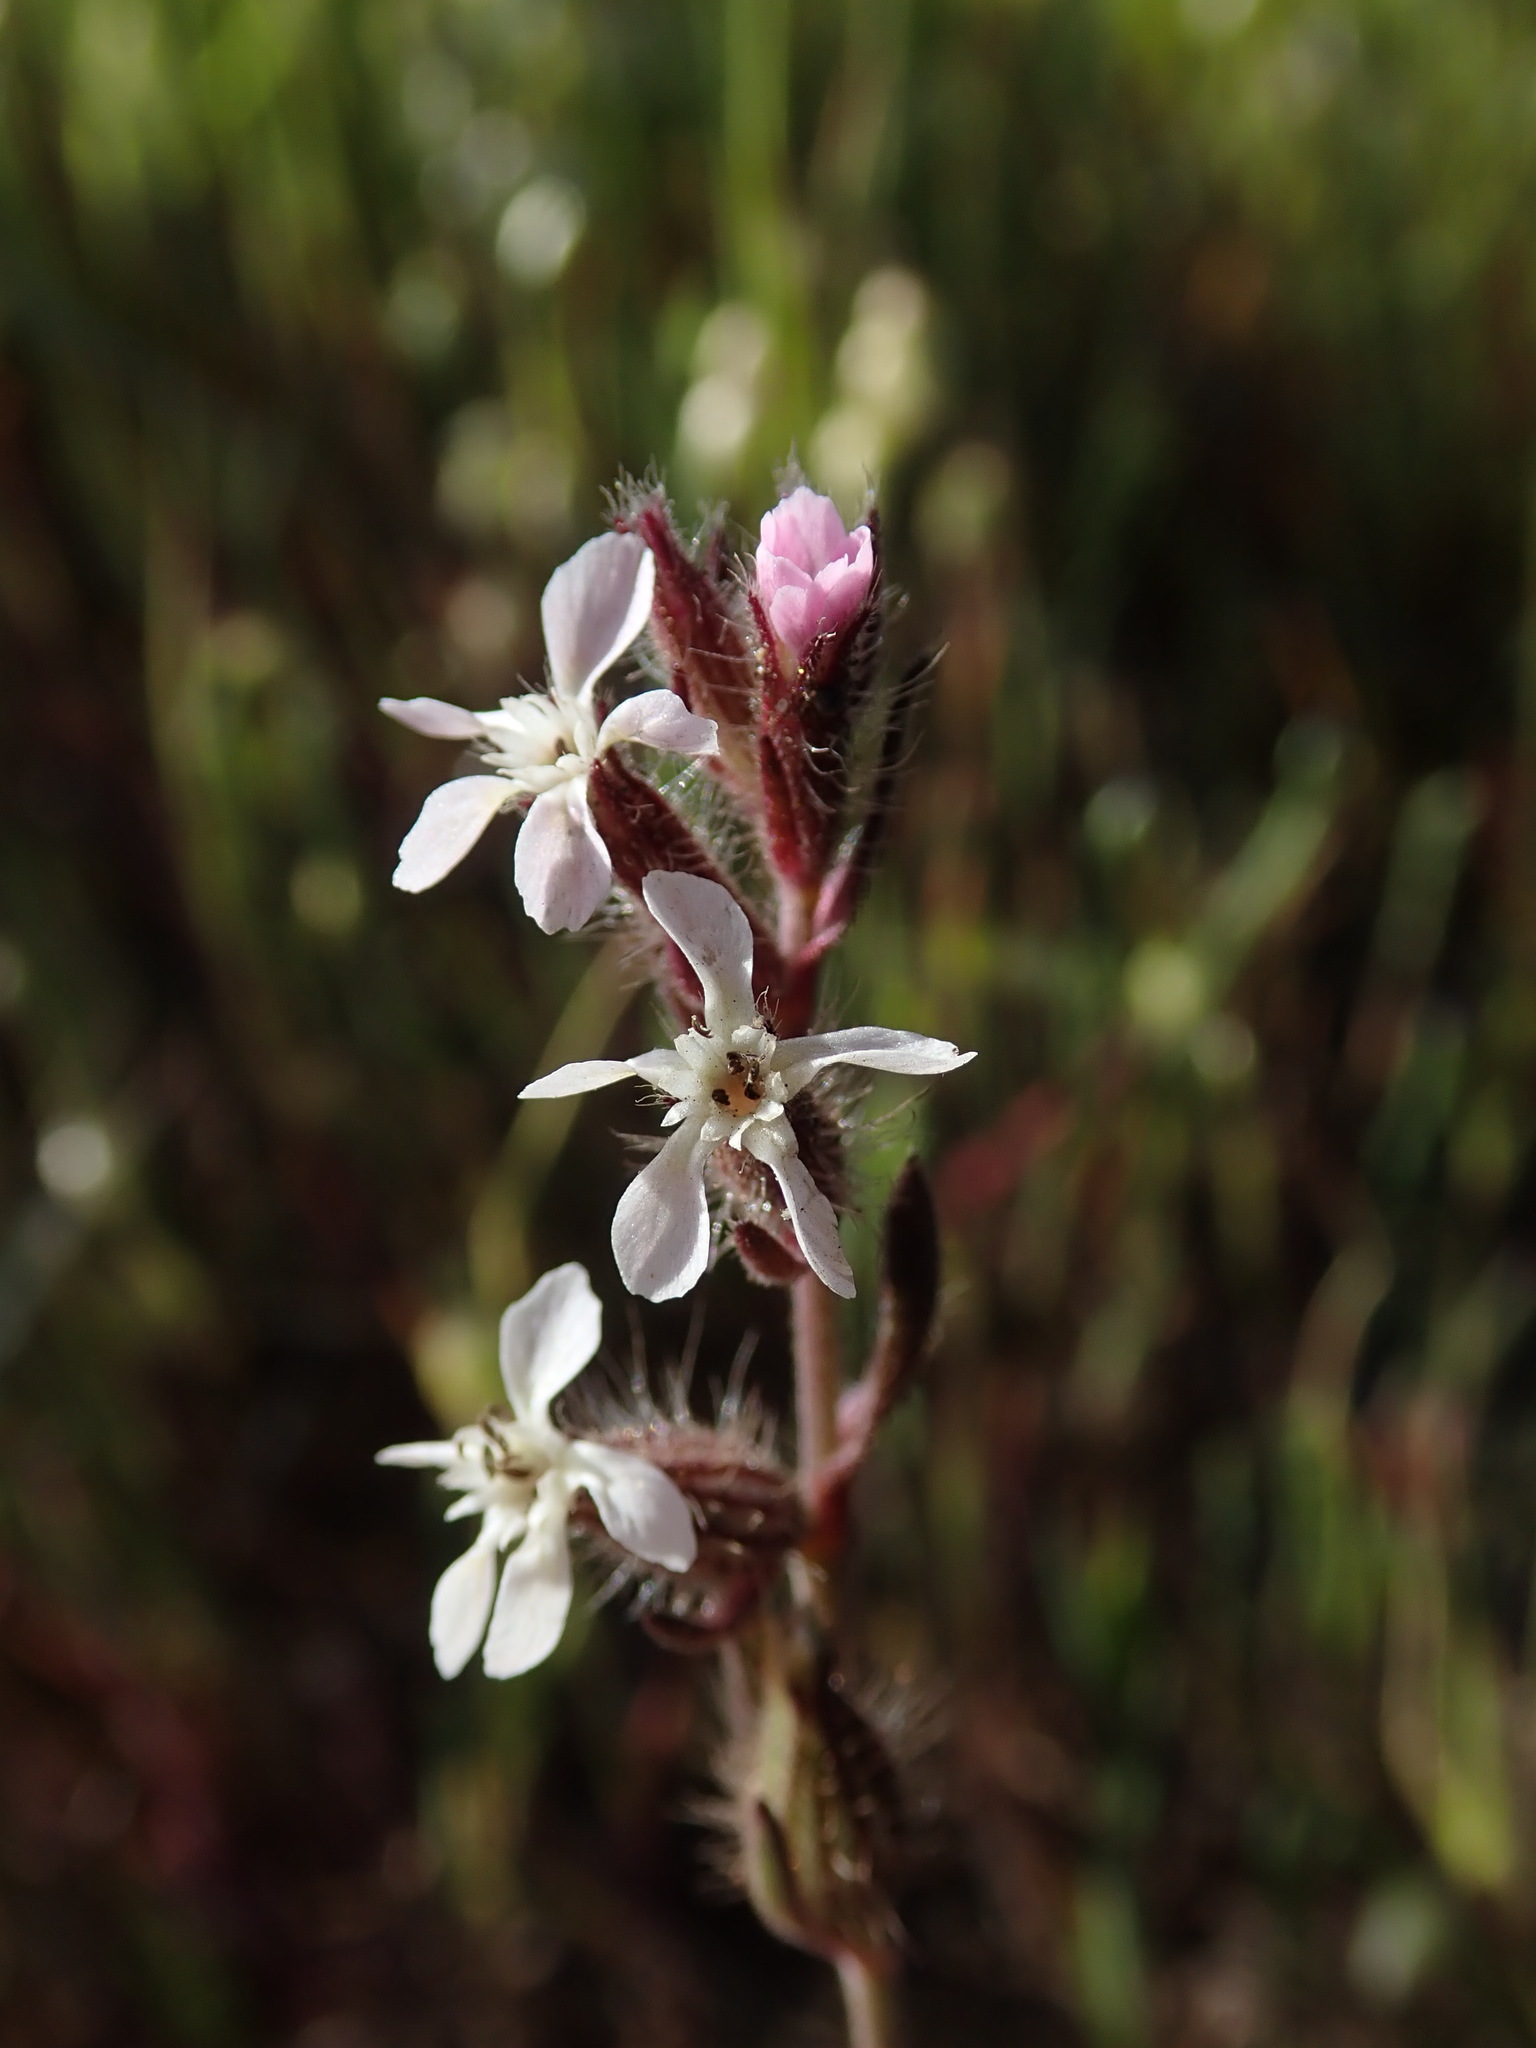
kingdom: Plantae
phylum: Tracheophyta
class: Magnoliopsida
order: Caryophyllales
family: Caryophyllaceae
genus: Silene
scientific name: Silene gallica
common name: Small-flowered catchfly
